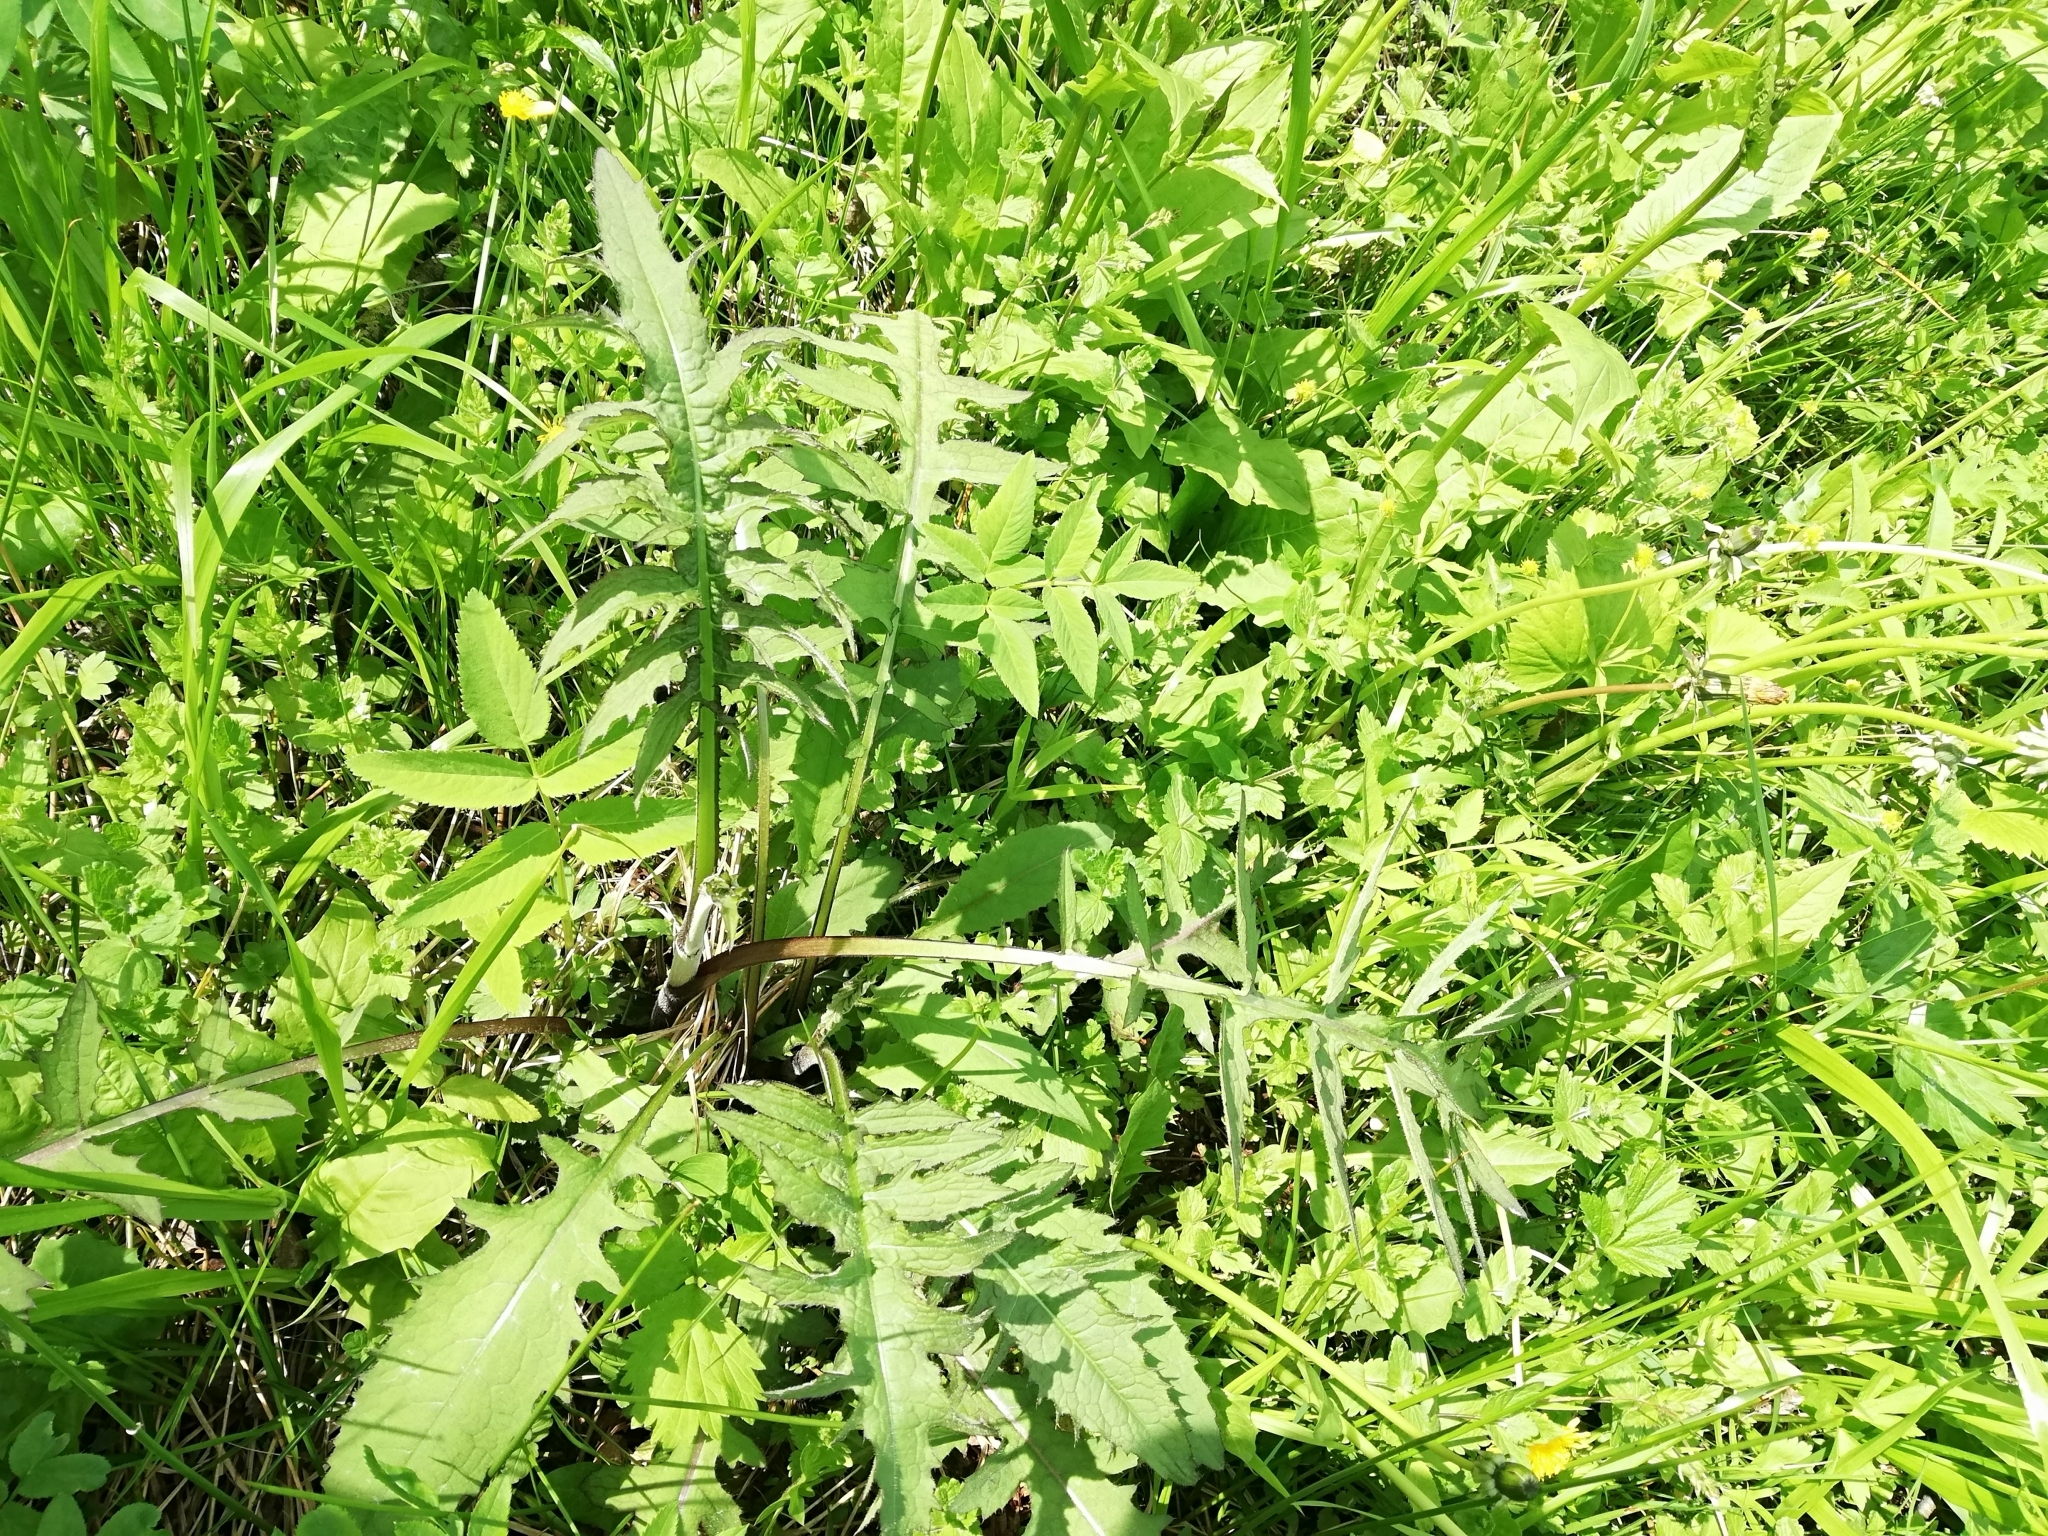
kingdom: Plantae
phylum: Tracheophyta
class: Magnoliopsida
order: Asterales
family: Asteraceae
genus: Cirsium
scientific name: Cirsium oleraceum
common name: Cabbage thistle
